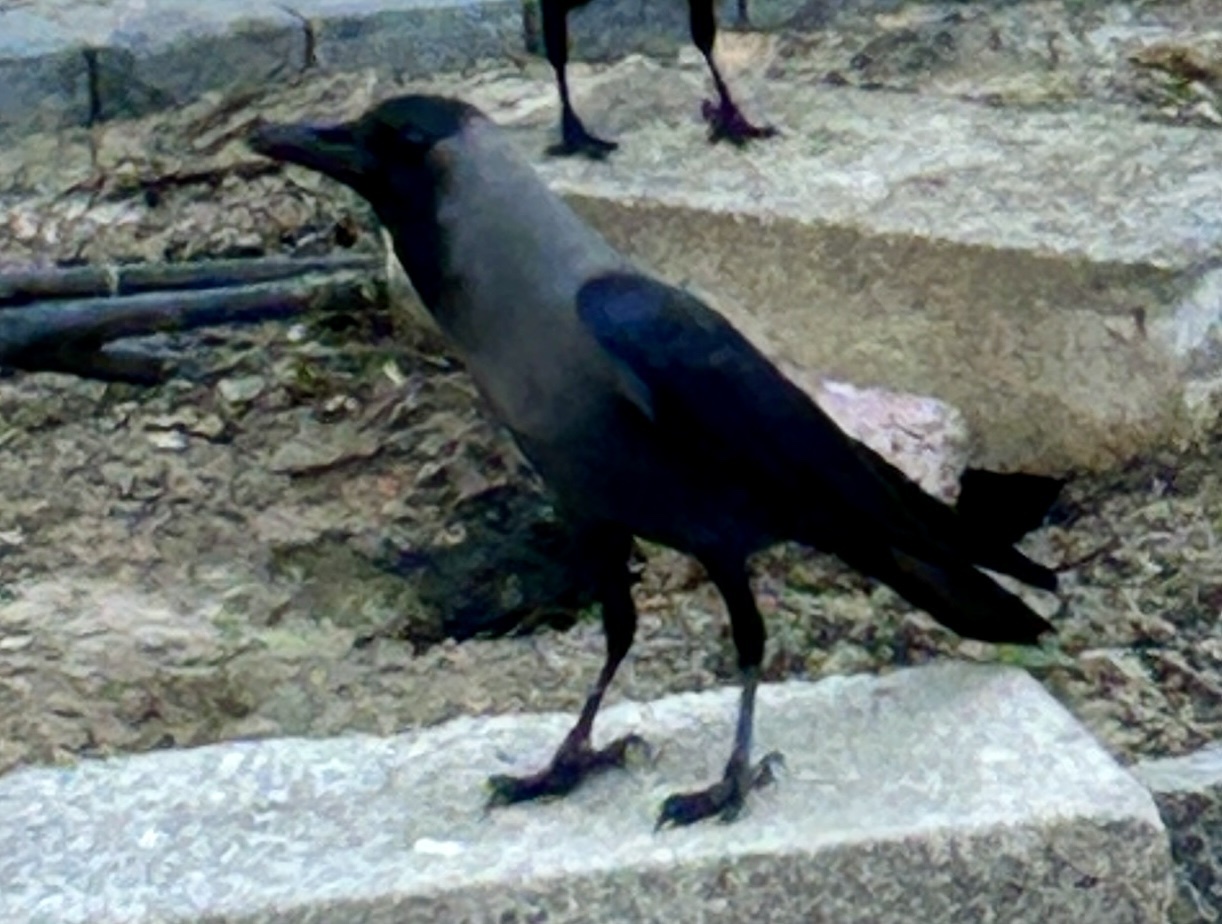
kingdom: Animalia
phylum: Chordata
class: Aves
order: Passeriformes
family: Corvidae
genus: Corvus
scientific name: Corvus splendens
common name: House crow
